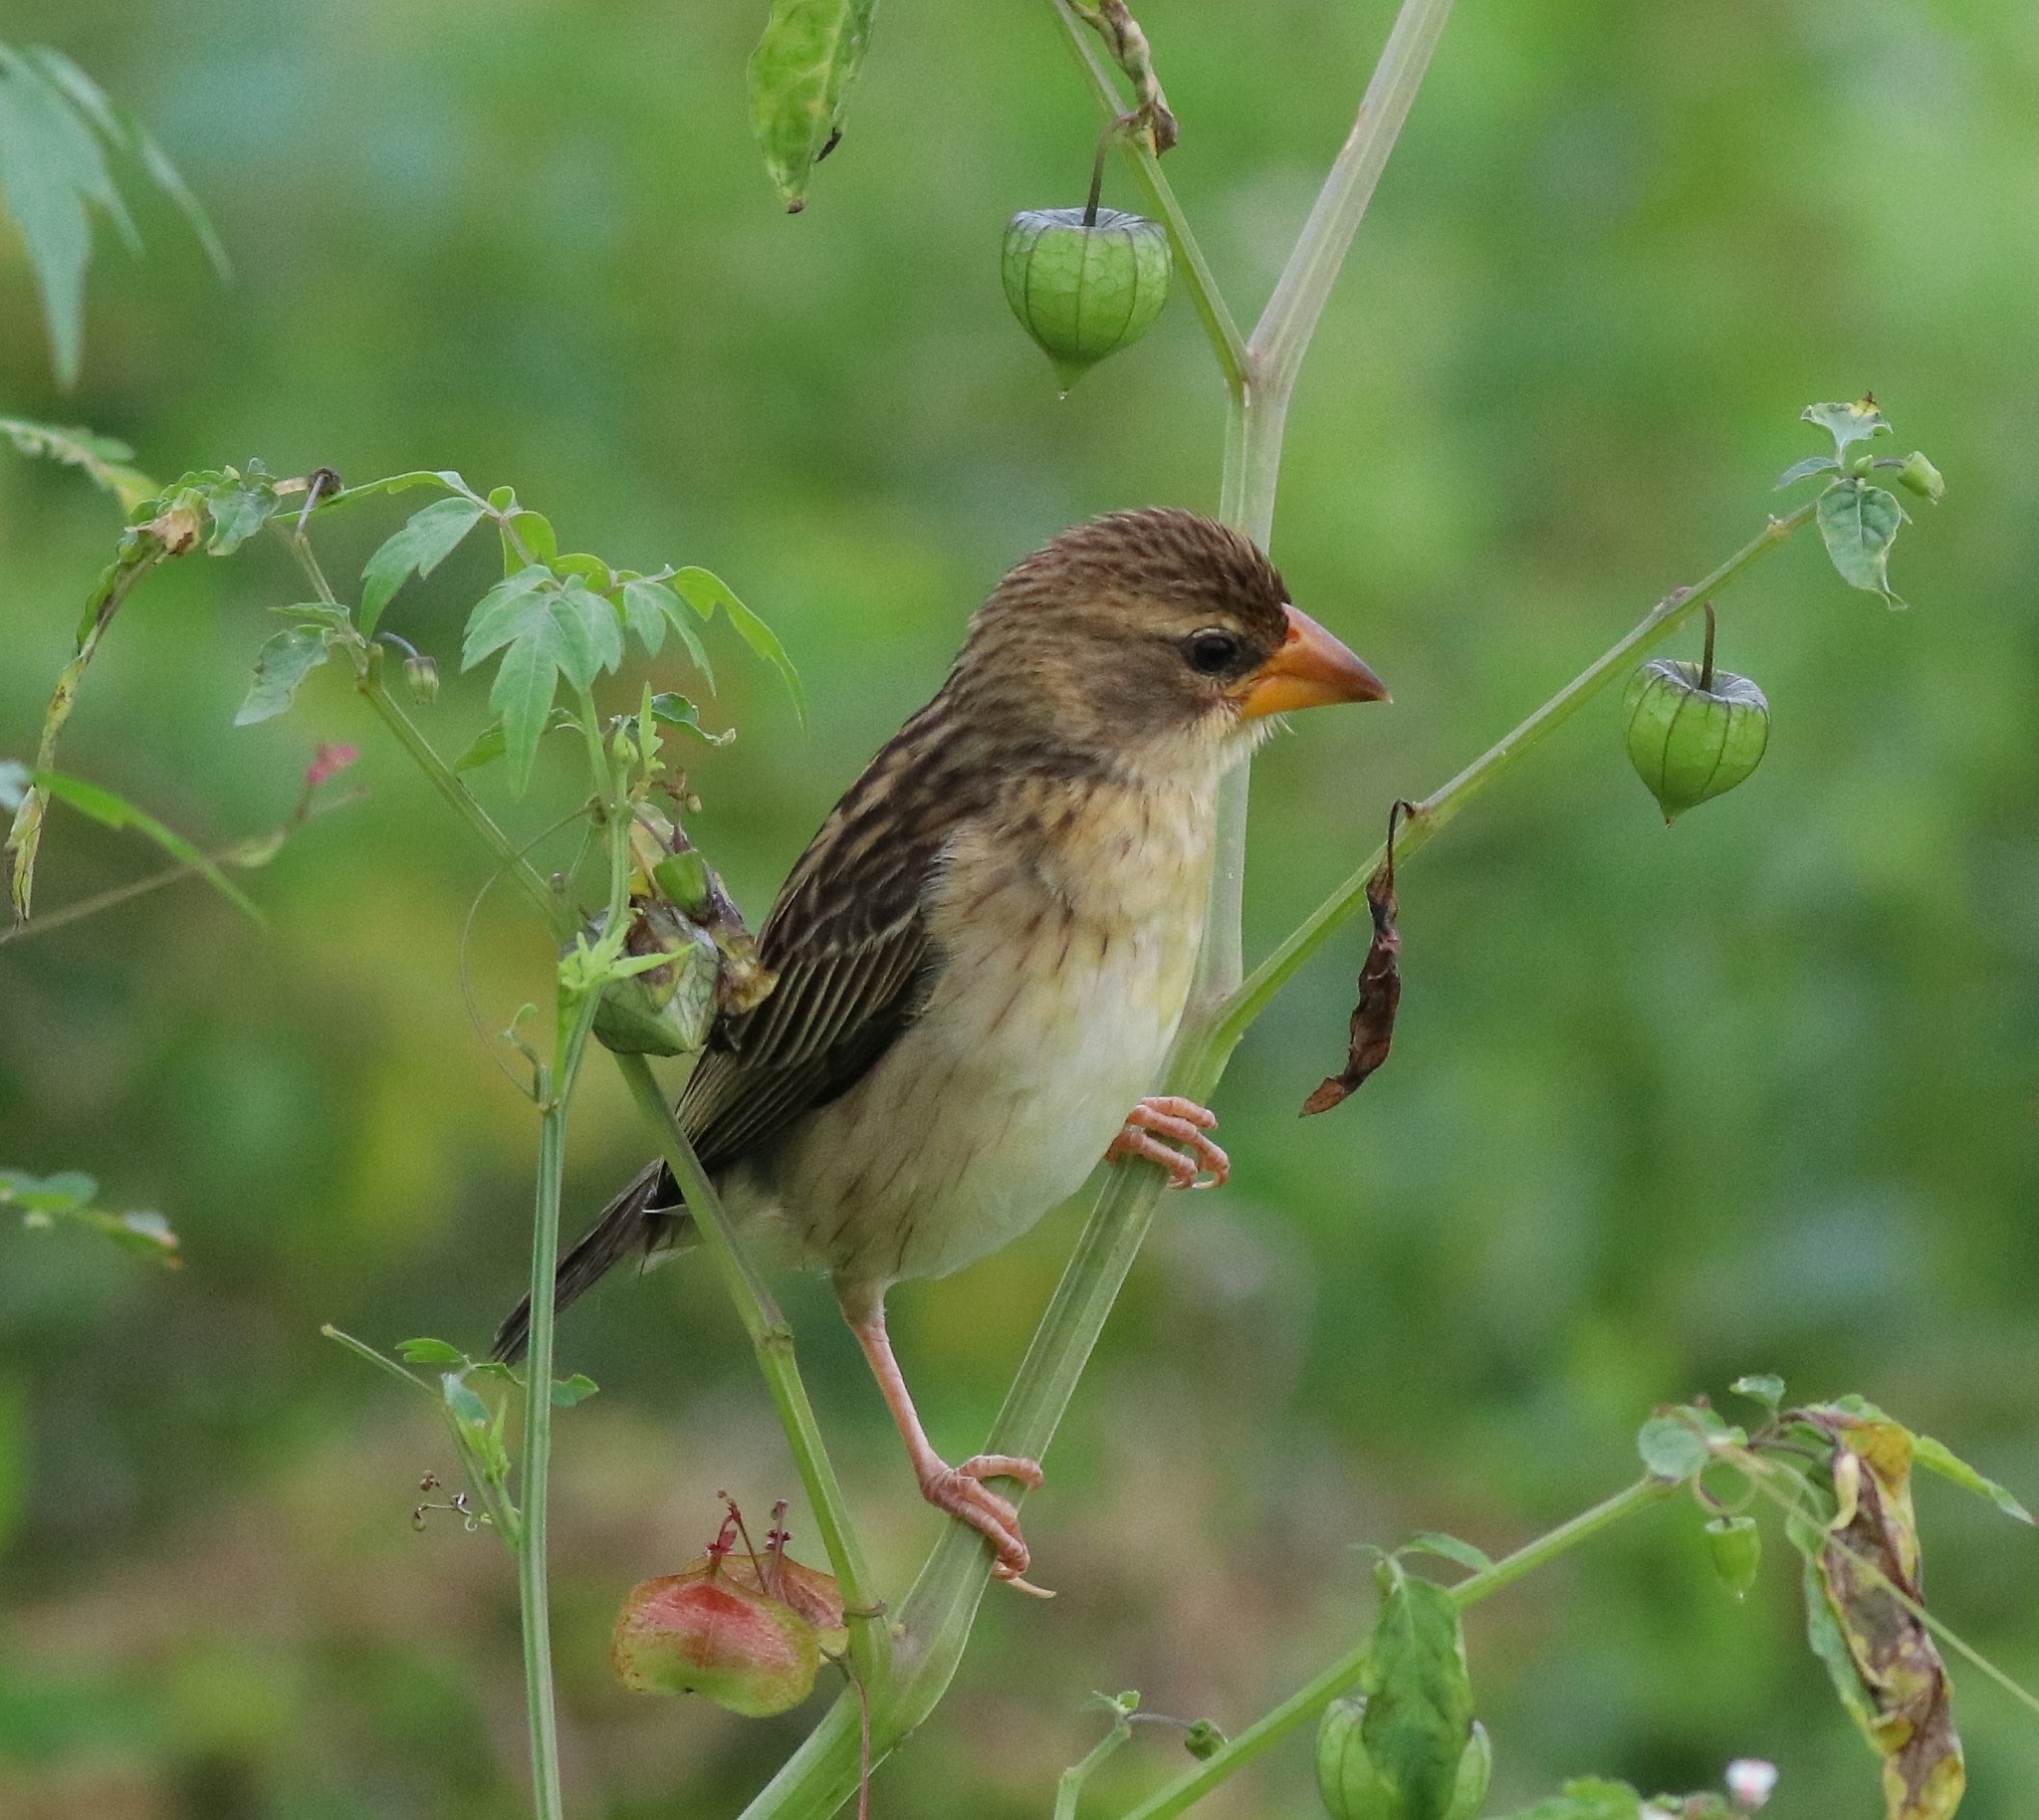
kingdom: Animalia
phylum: Chordata
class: Aves
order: Passeriformes
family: Ploceidae
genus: Ploceus
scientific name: Ploceus philippinus
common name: Baya weaver
